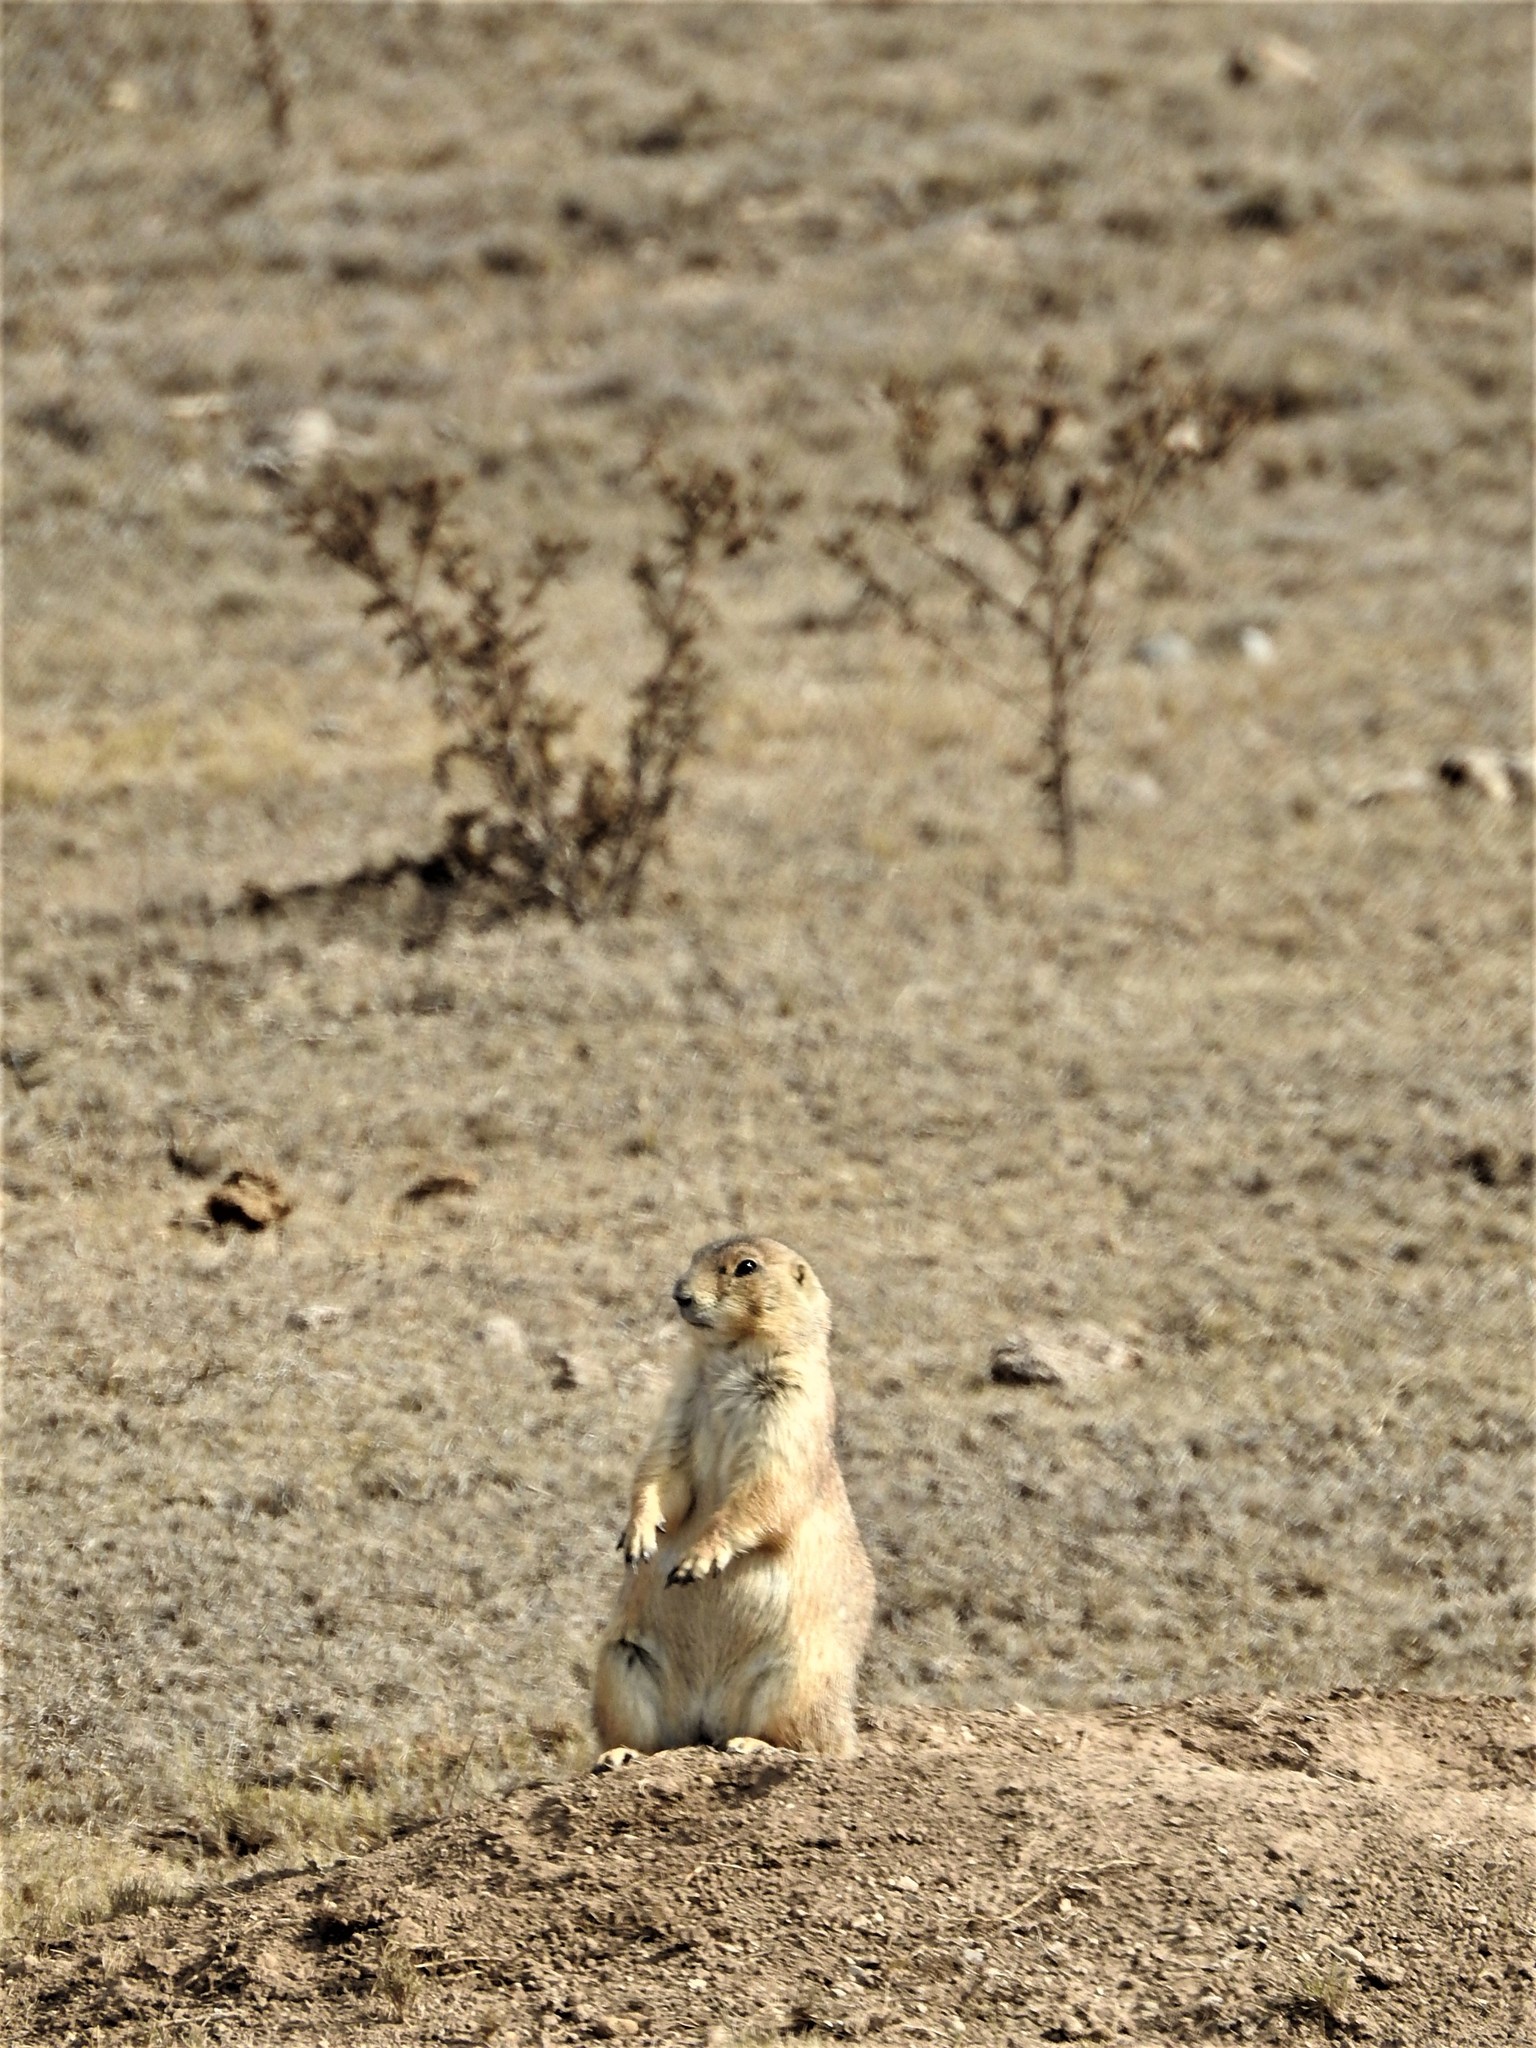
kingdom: Animalia
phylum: Chordata
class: Mammalia
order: Rodentia
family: Sciuridae
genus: Cynomys
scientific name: Cynomys mexicanus
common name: Mexican prairie dog
